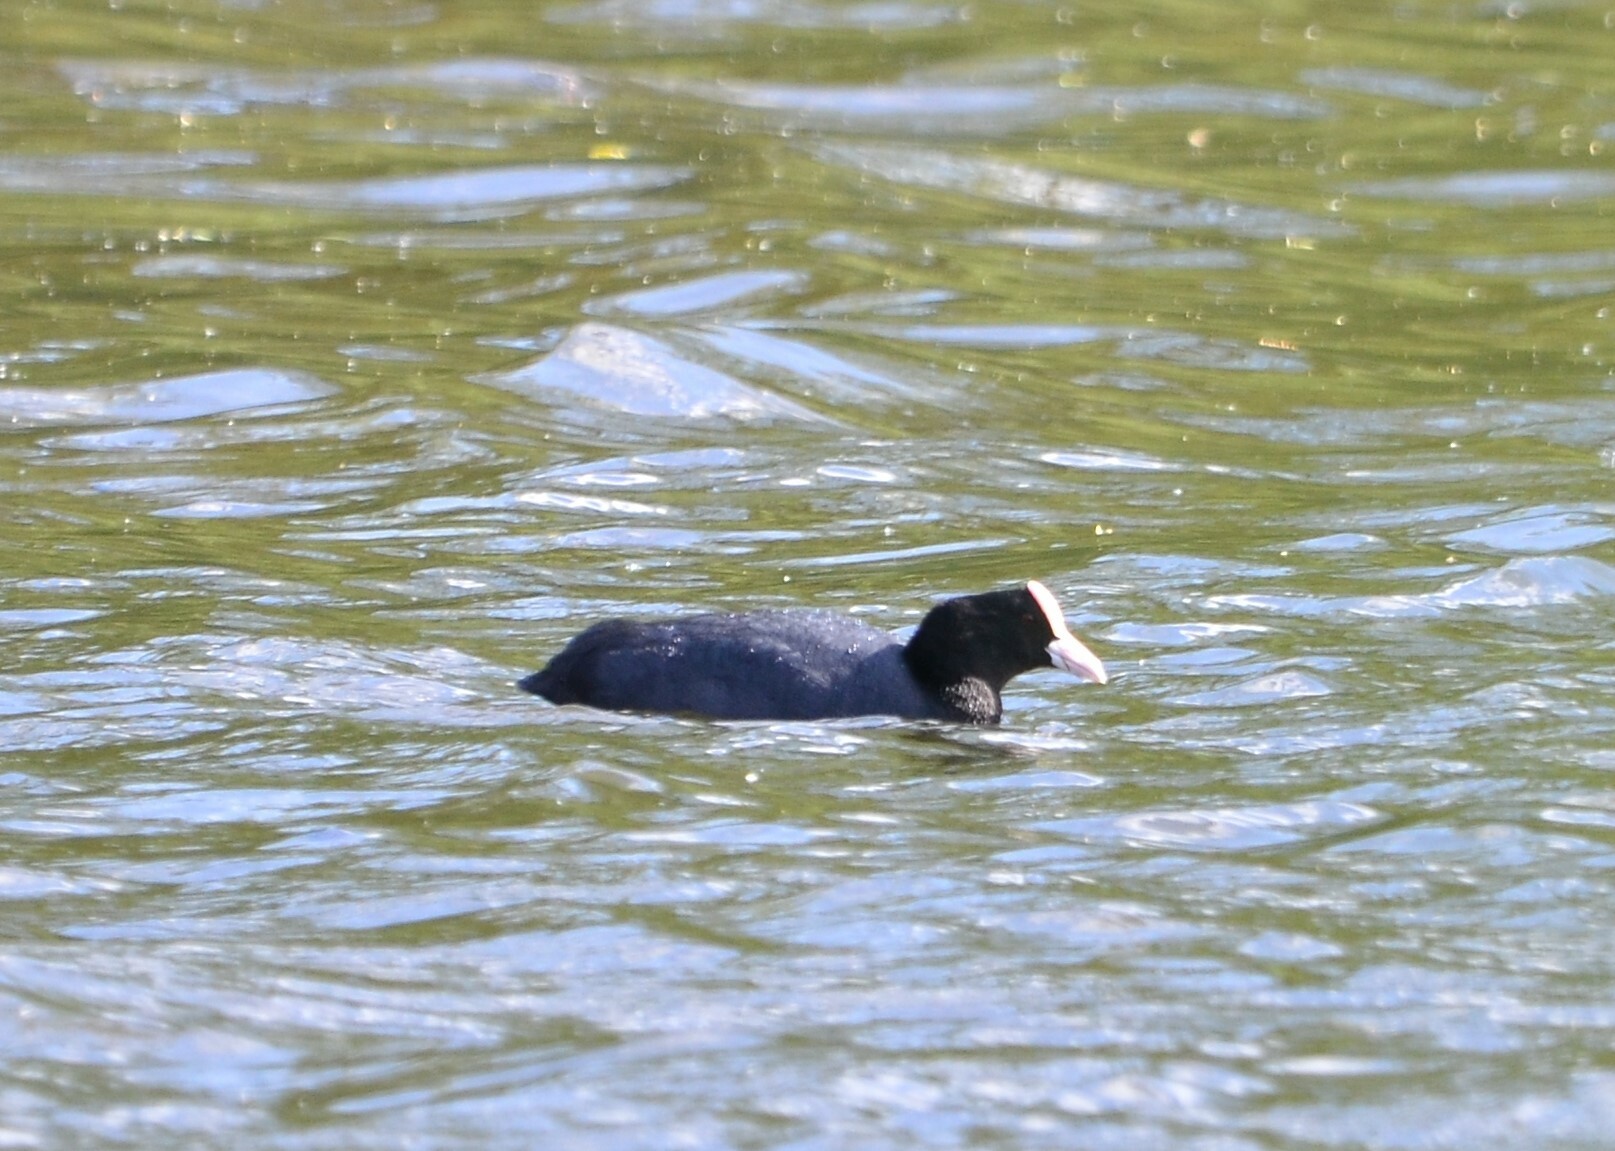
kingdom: Animalia
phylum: Chordata
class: Aves
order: Gruiformes
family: Rallidae
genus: Fulica
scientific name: Fulica atra
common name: Eurasian coot
